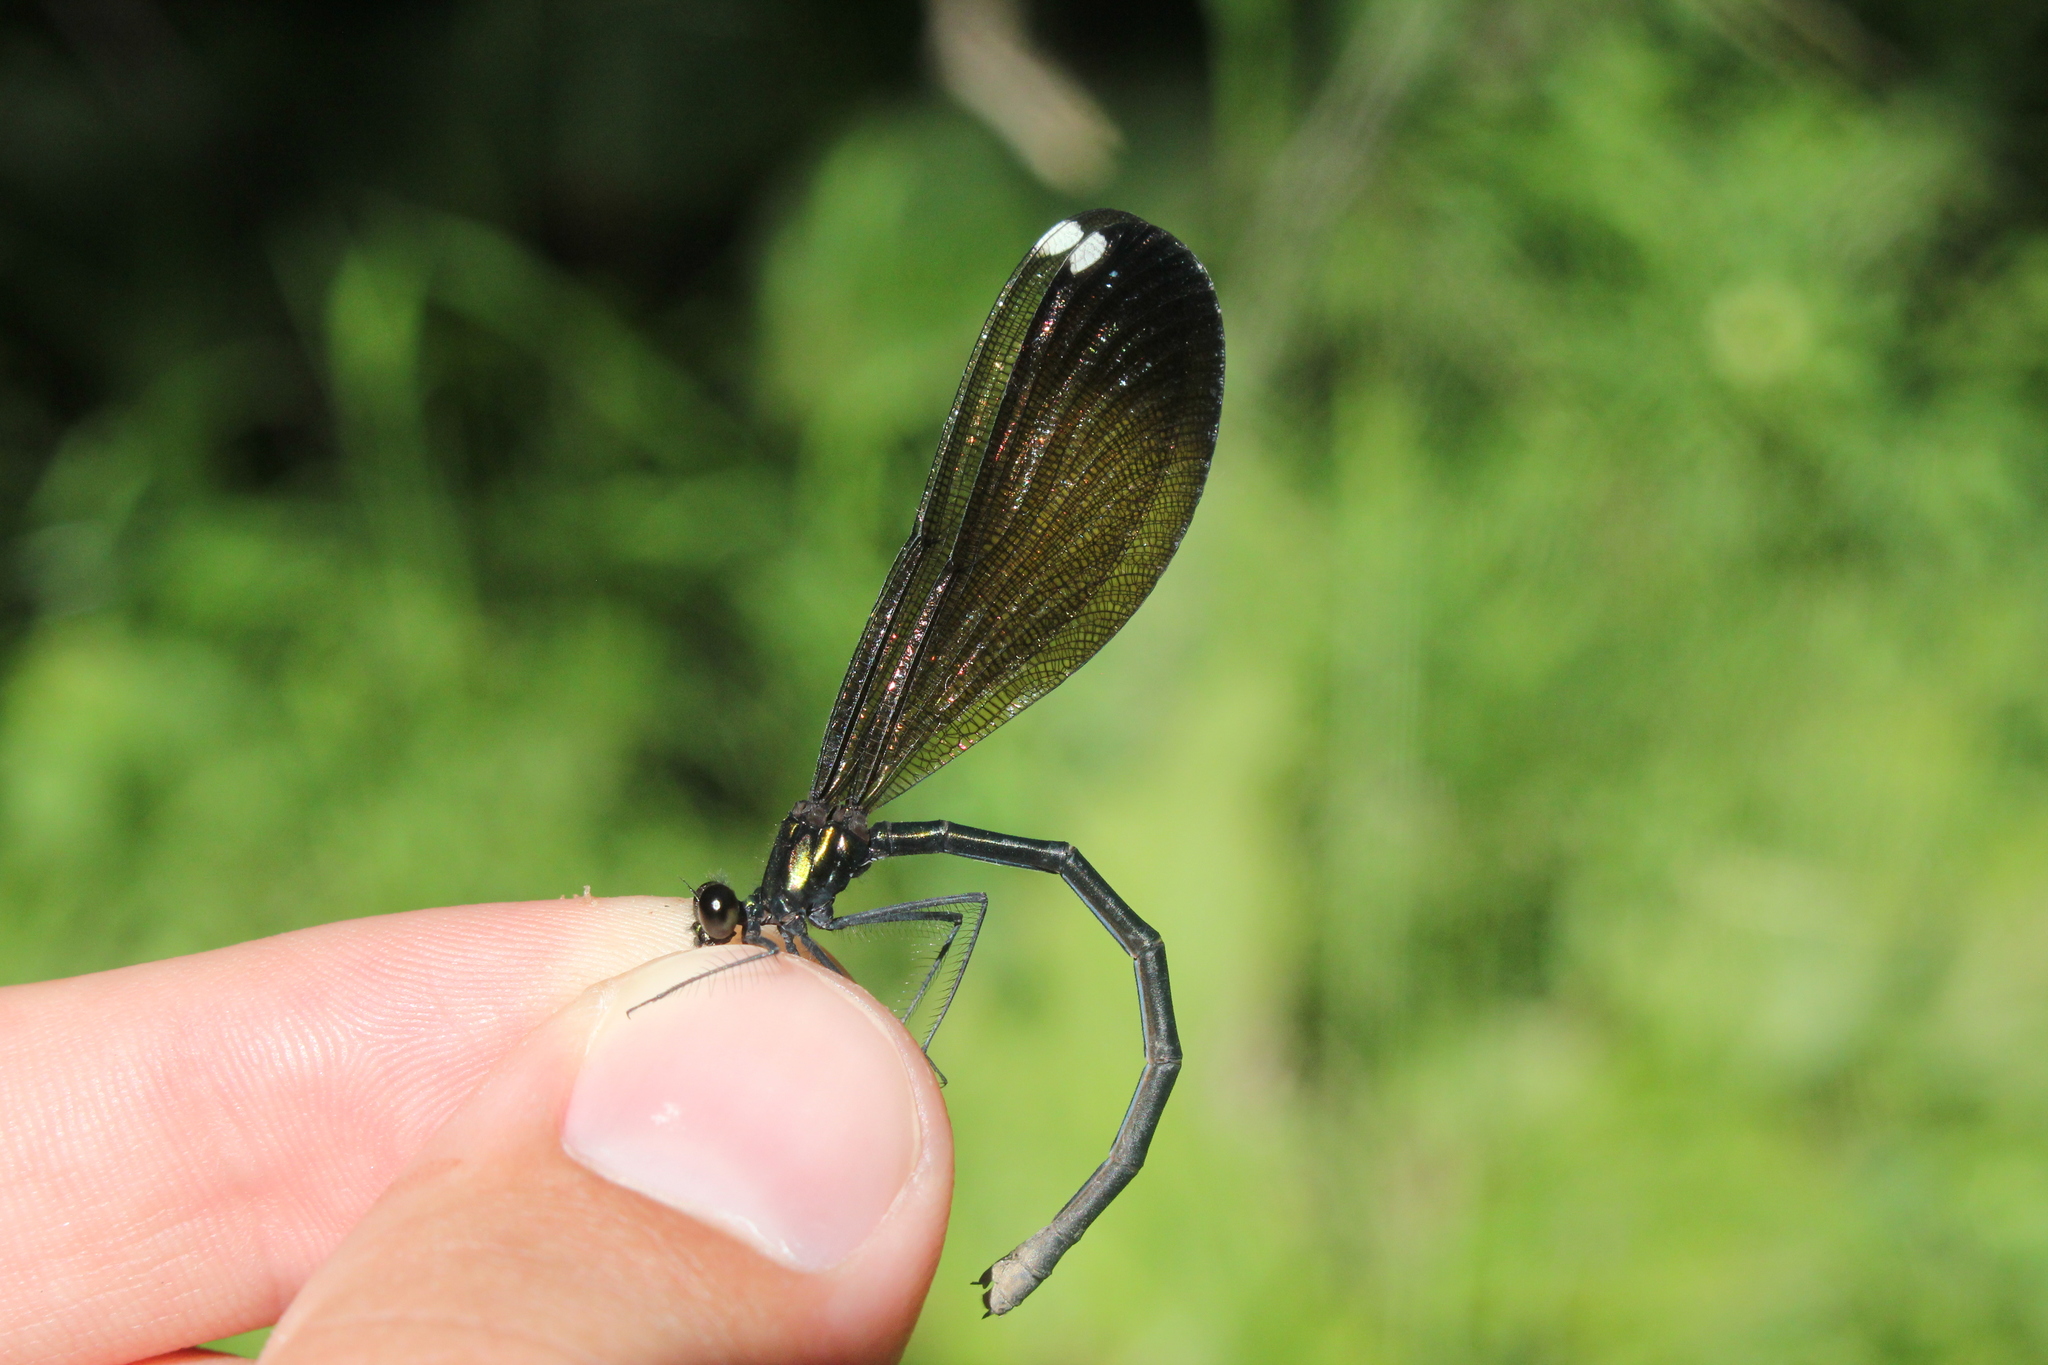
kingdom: Animalia
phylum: Arthropoda
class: Insecta
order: Odonata
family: Calopterygidae
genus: Calopteryx
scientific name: Calopteryx maculata
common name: Ebony jewelwing
